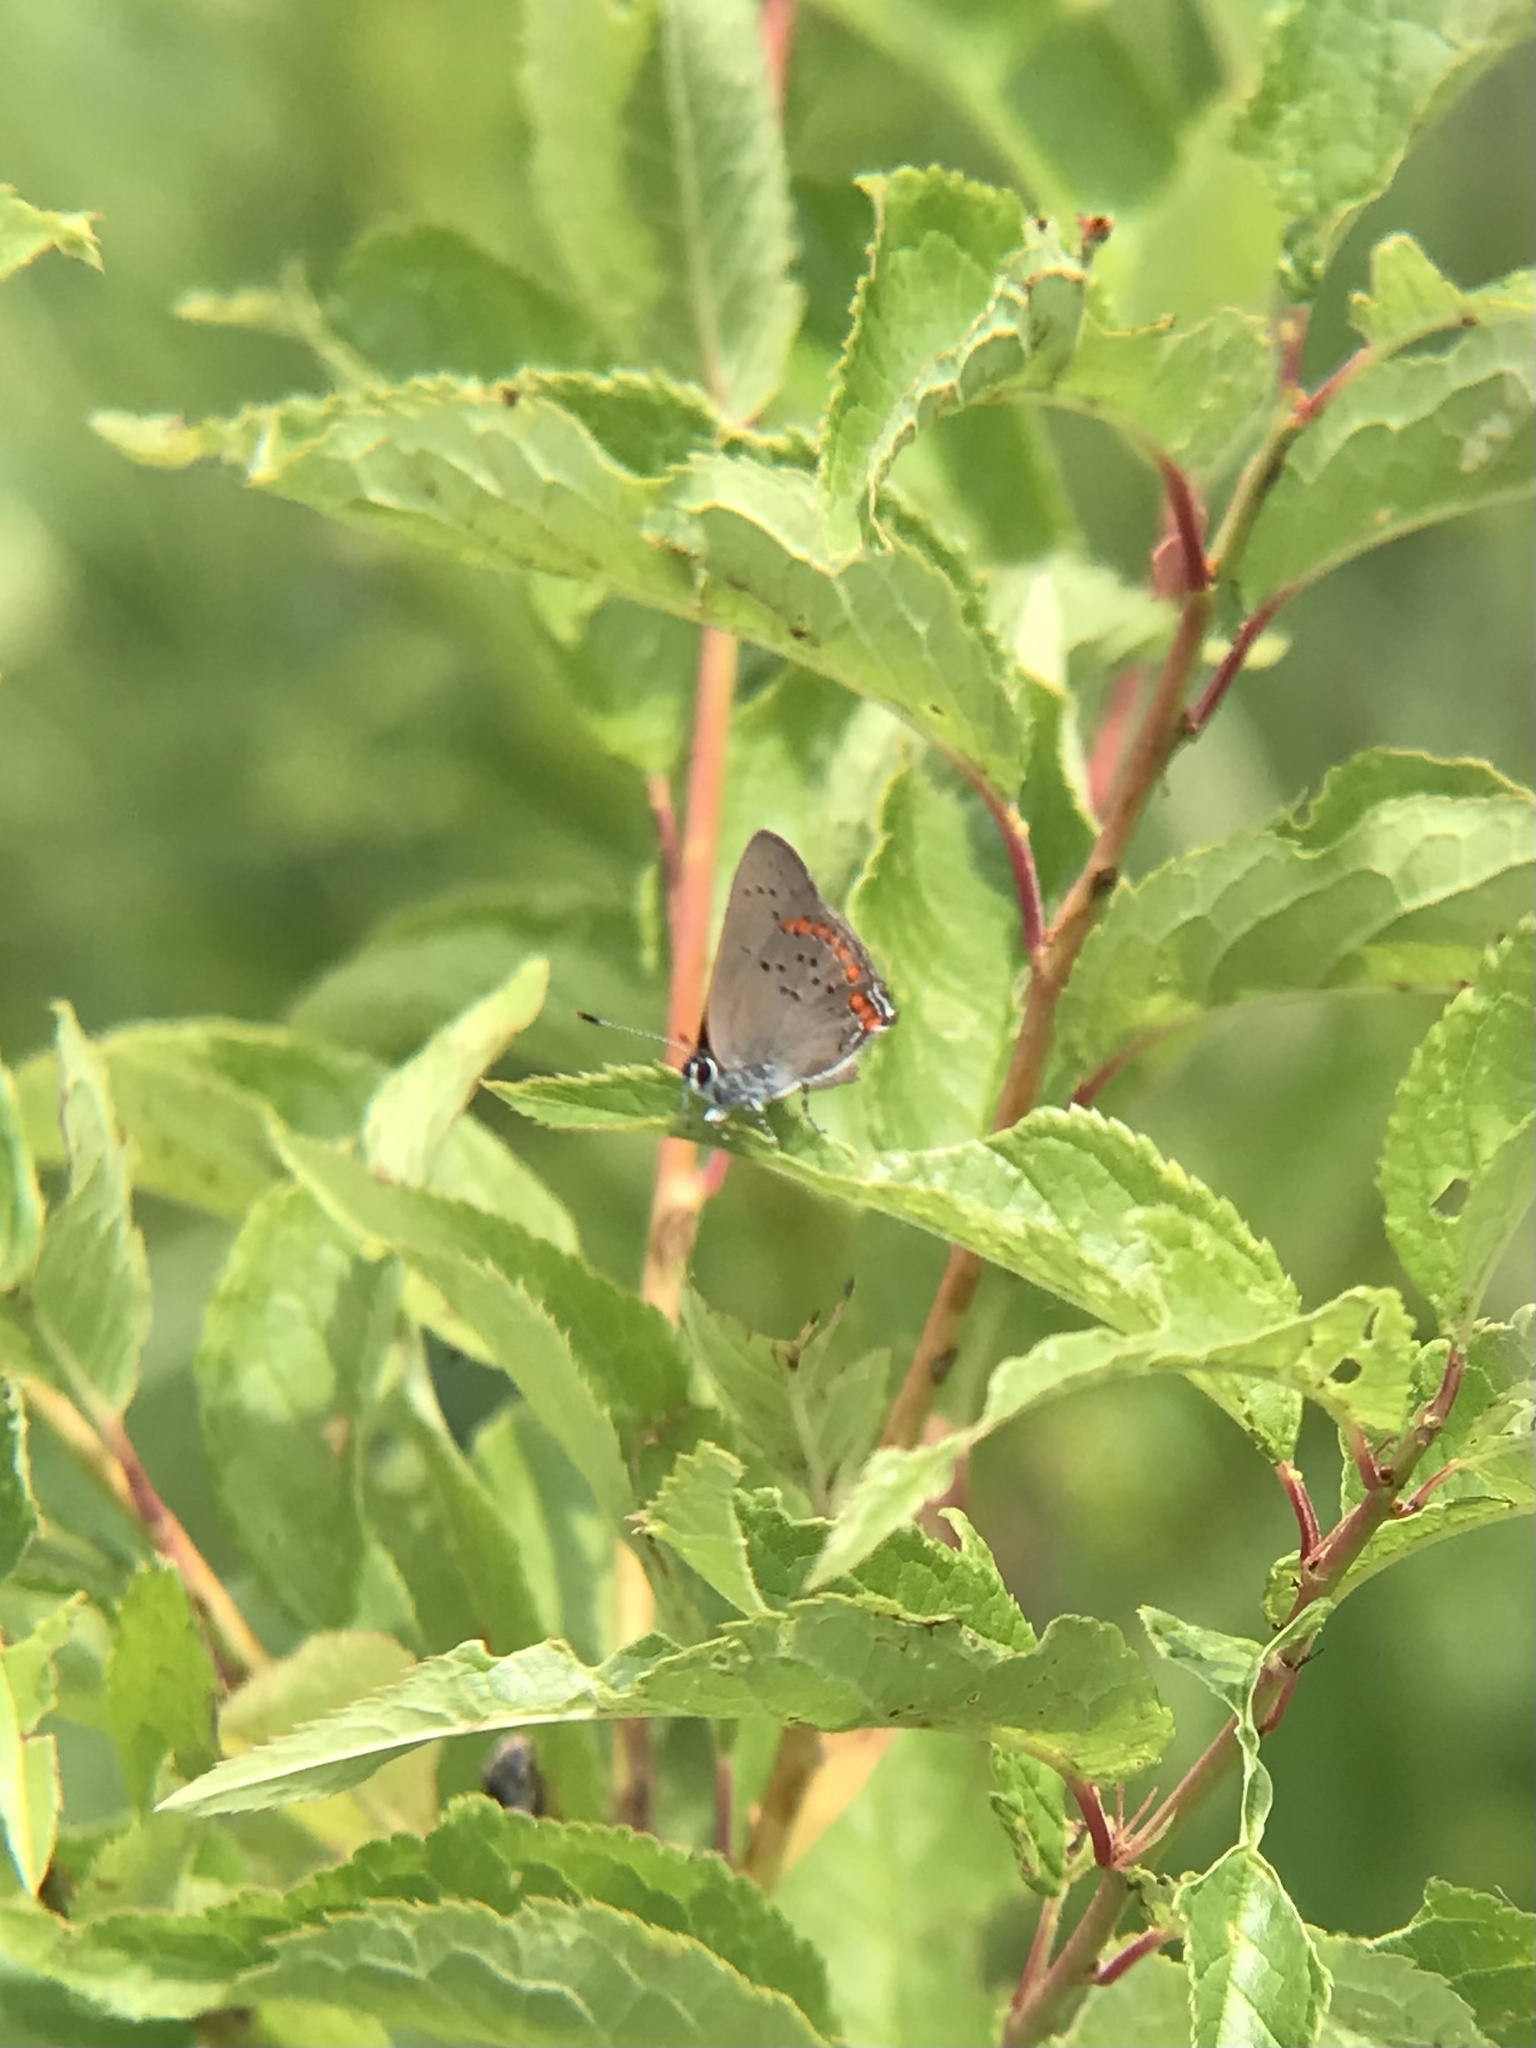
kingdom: Animalia
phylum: Arthropoda
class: Insecta
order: Lepidoptera
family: Lycaenidae
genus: Harkenclenus
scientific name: Harkenclenus titus
